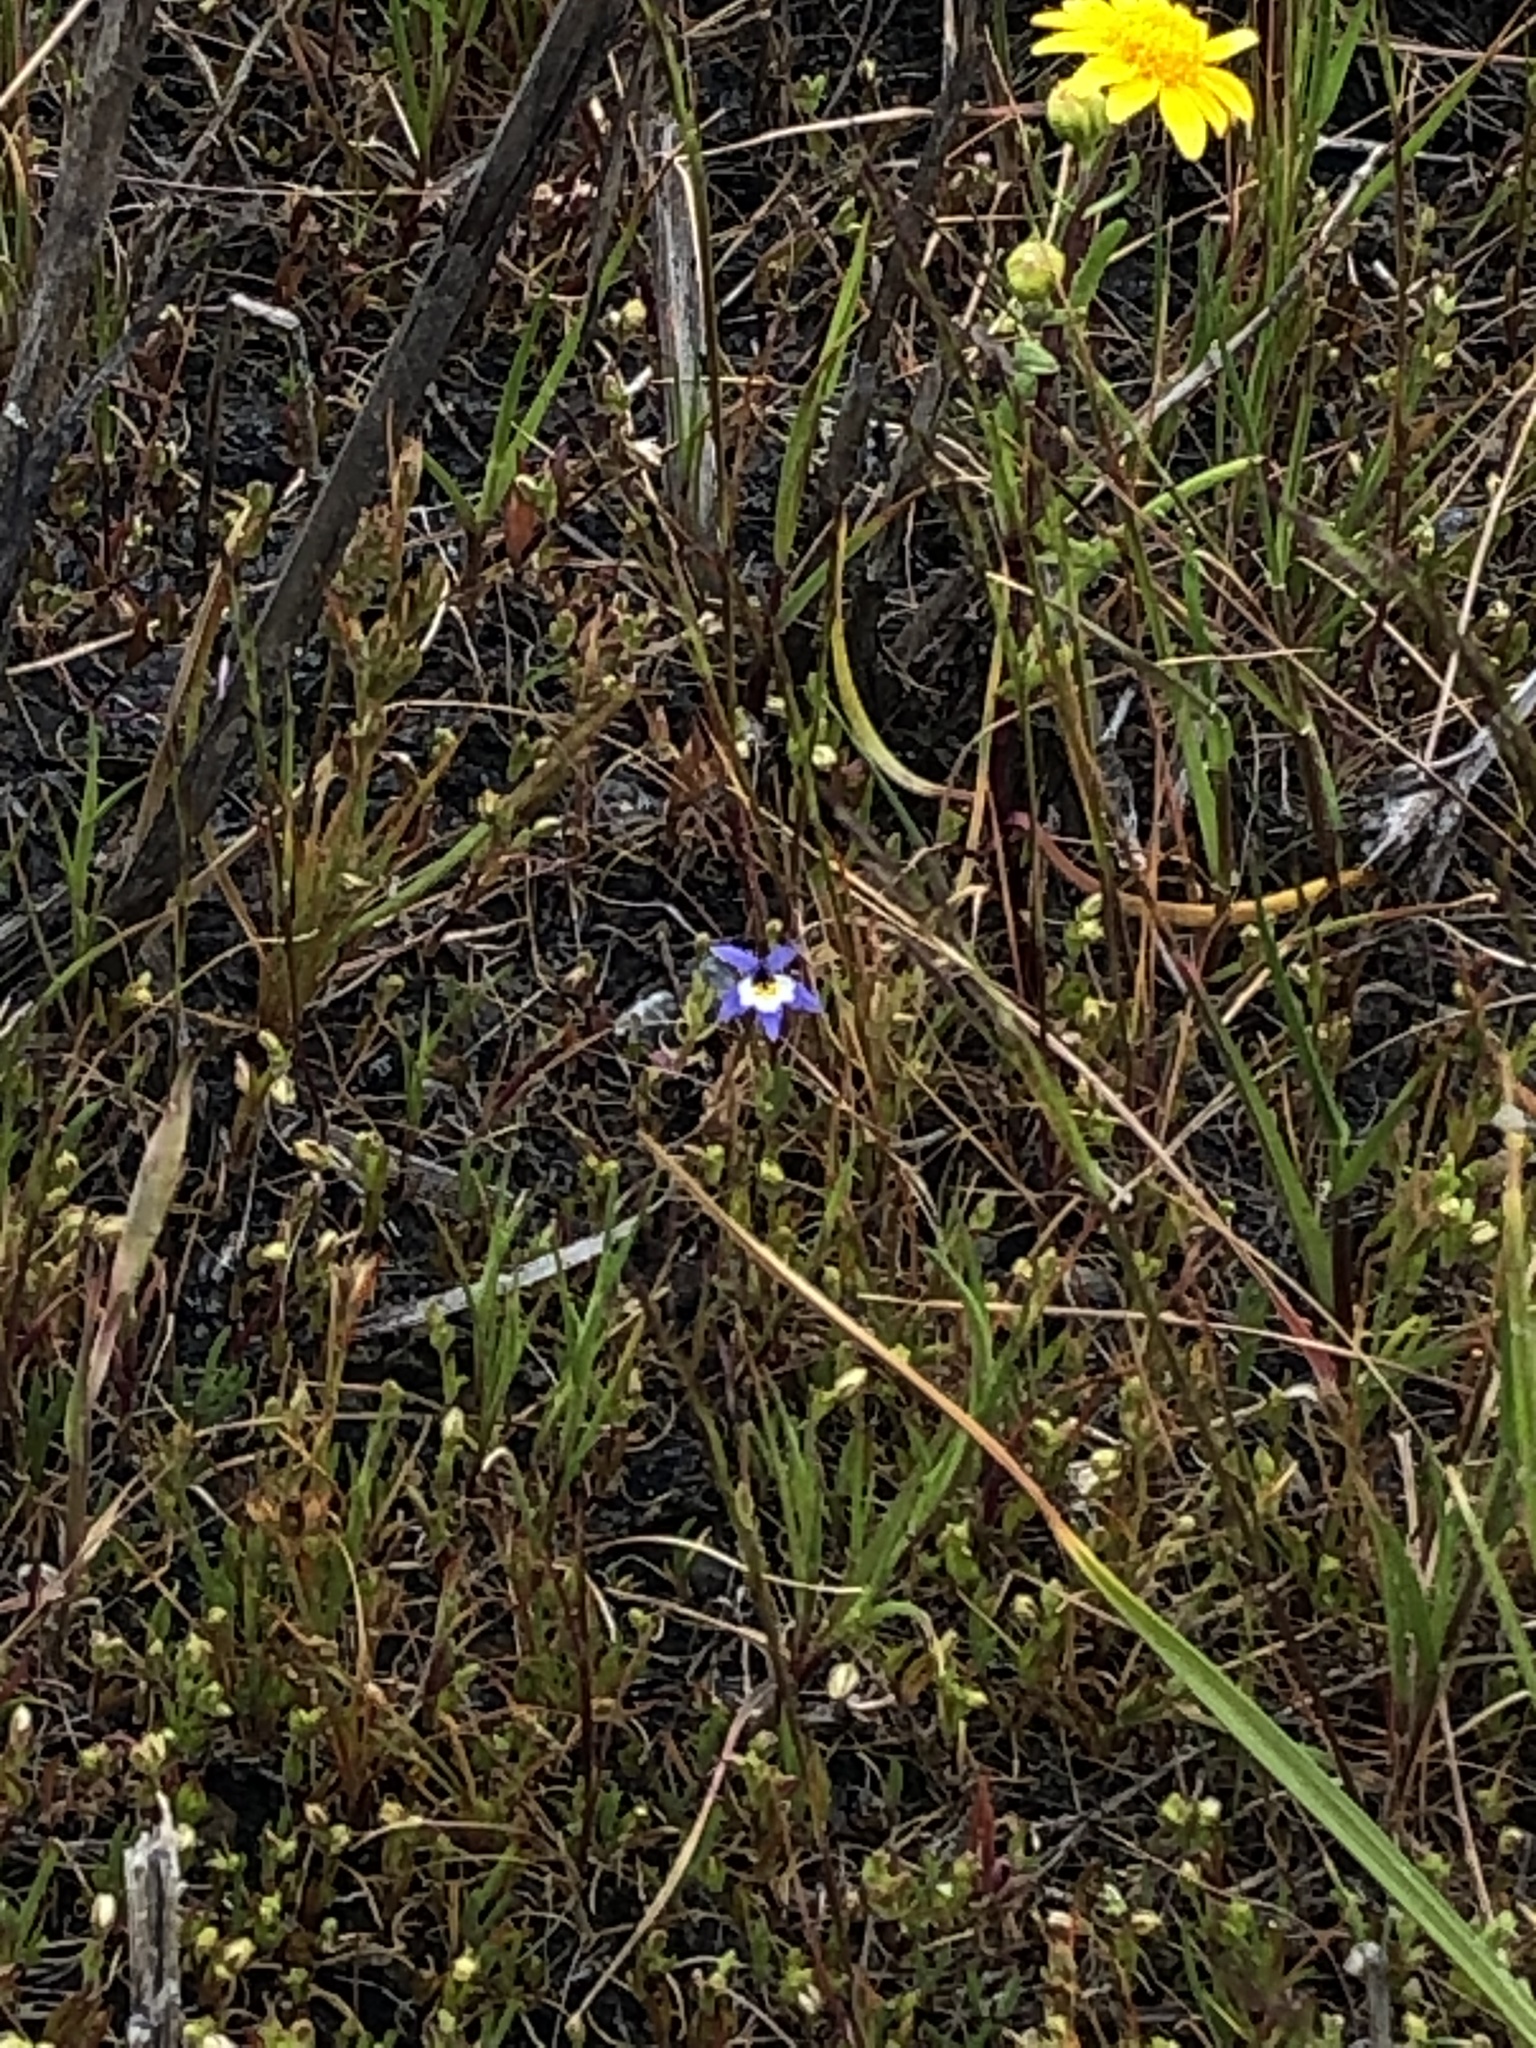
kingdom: Plantae
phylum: Tracheophyta
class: Magnoliopsida
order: Asterales
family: Campanulaceae
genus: Downingia
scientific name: Downingia pulchella
